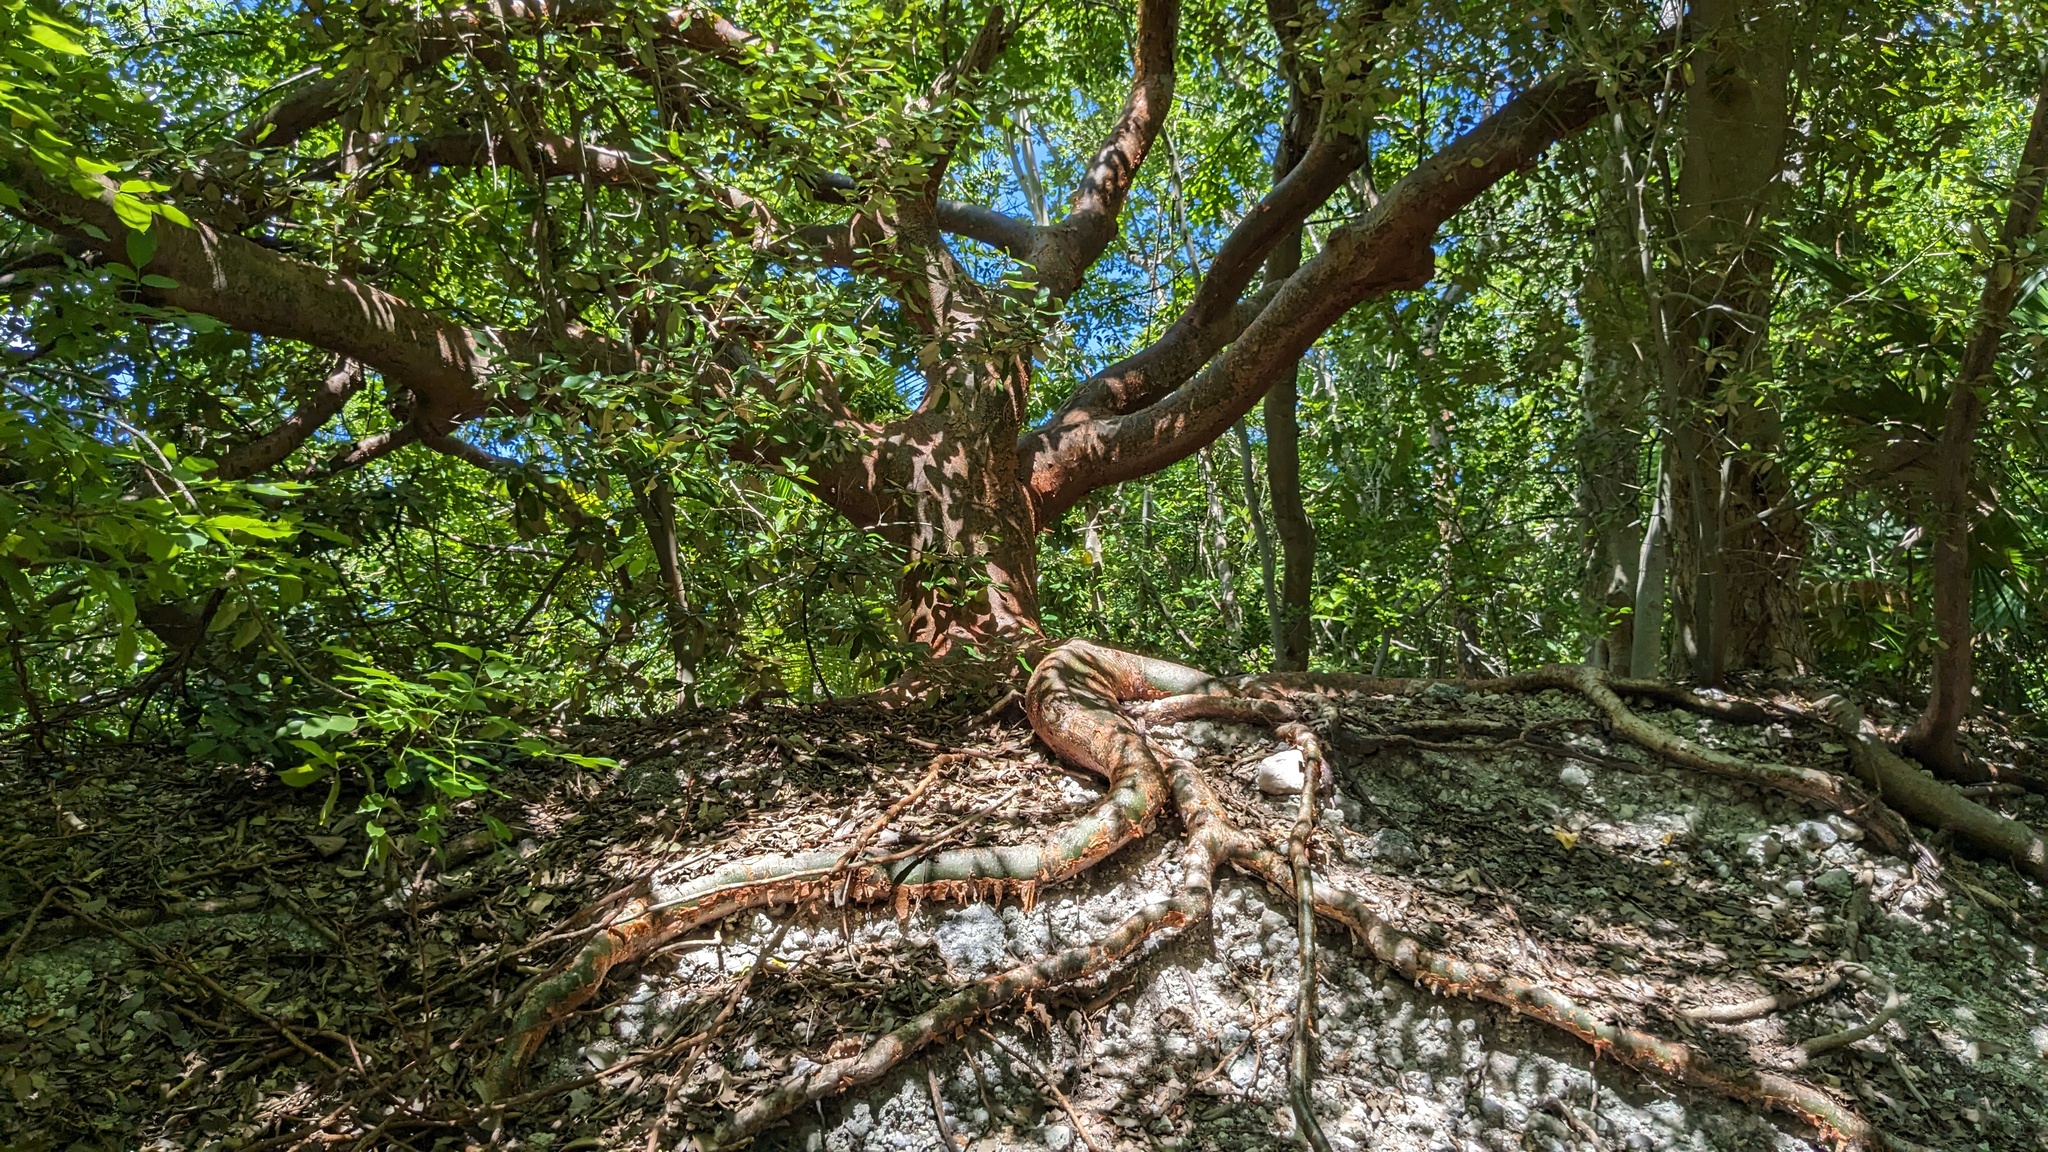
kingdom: Plantae
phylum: Tracheophyta
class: Magnoliopsida
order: Sapindales
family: Burseraceae
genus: Bursera
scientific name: Bursera simaruba
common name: Turpentine tree
